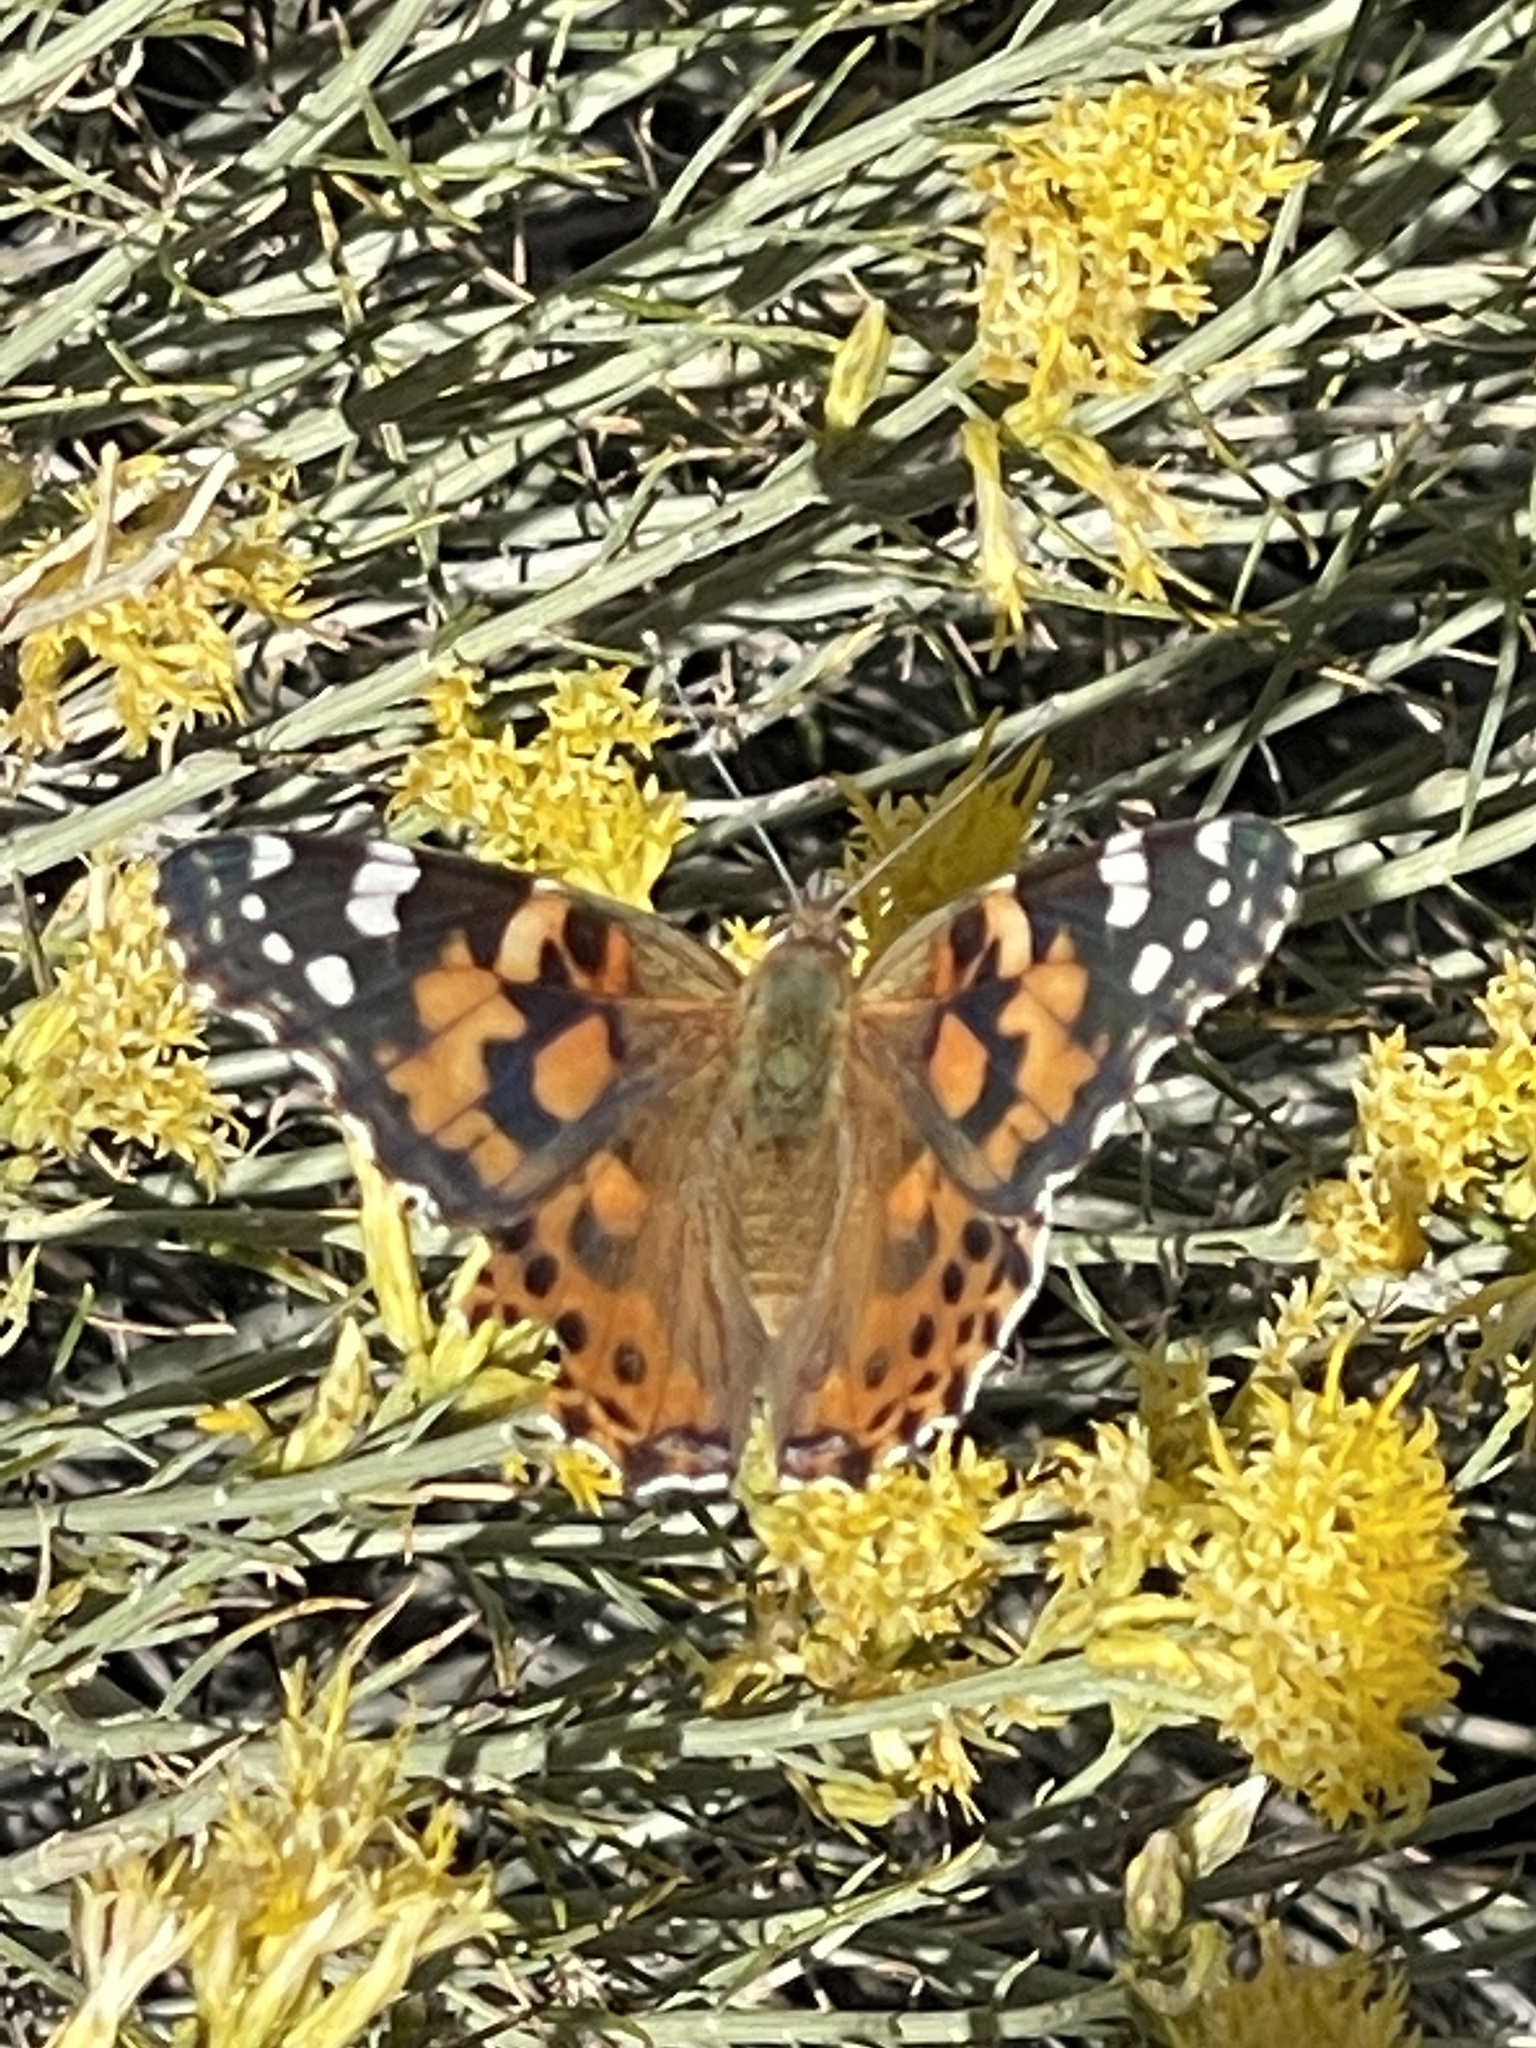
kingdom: Animalia
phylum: Arthropoda
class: Insecta
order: Lepidoptera
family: Nymphalidae
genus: Vanessa
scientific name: Vanessa cardui
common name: Painted lady
